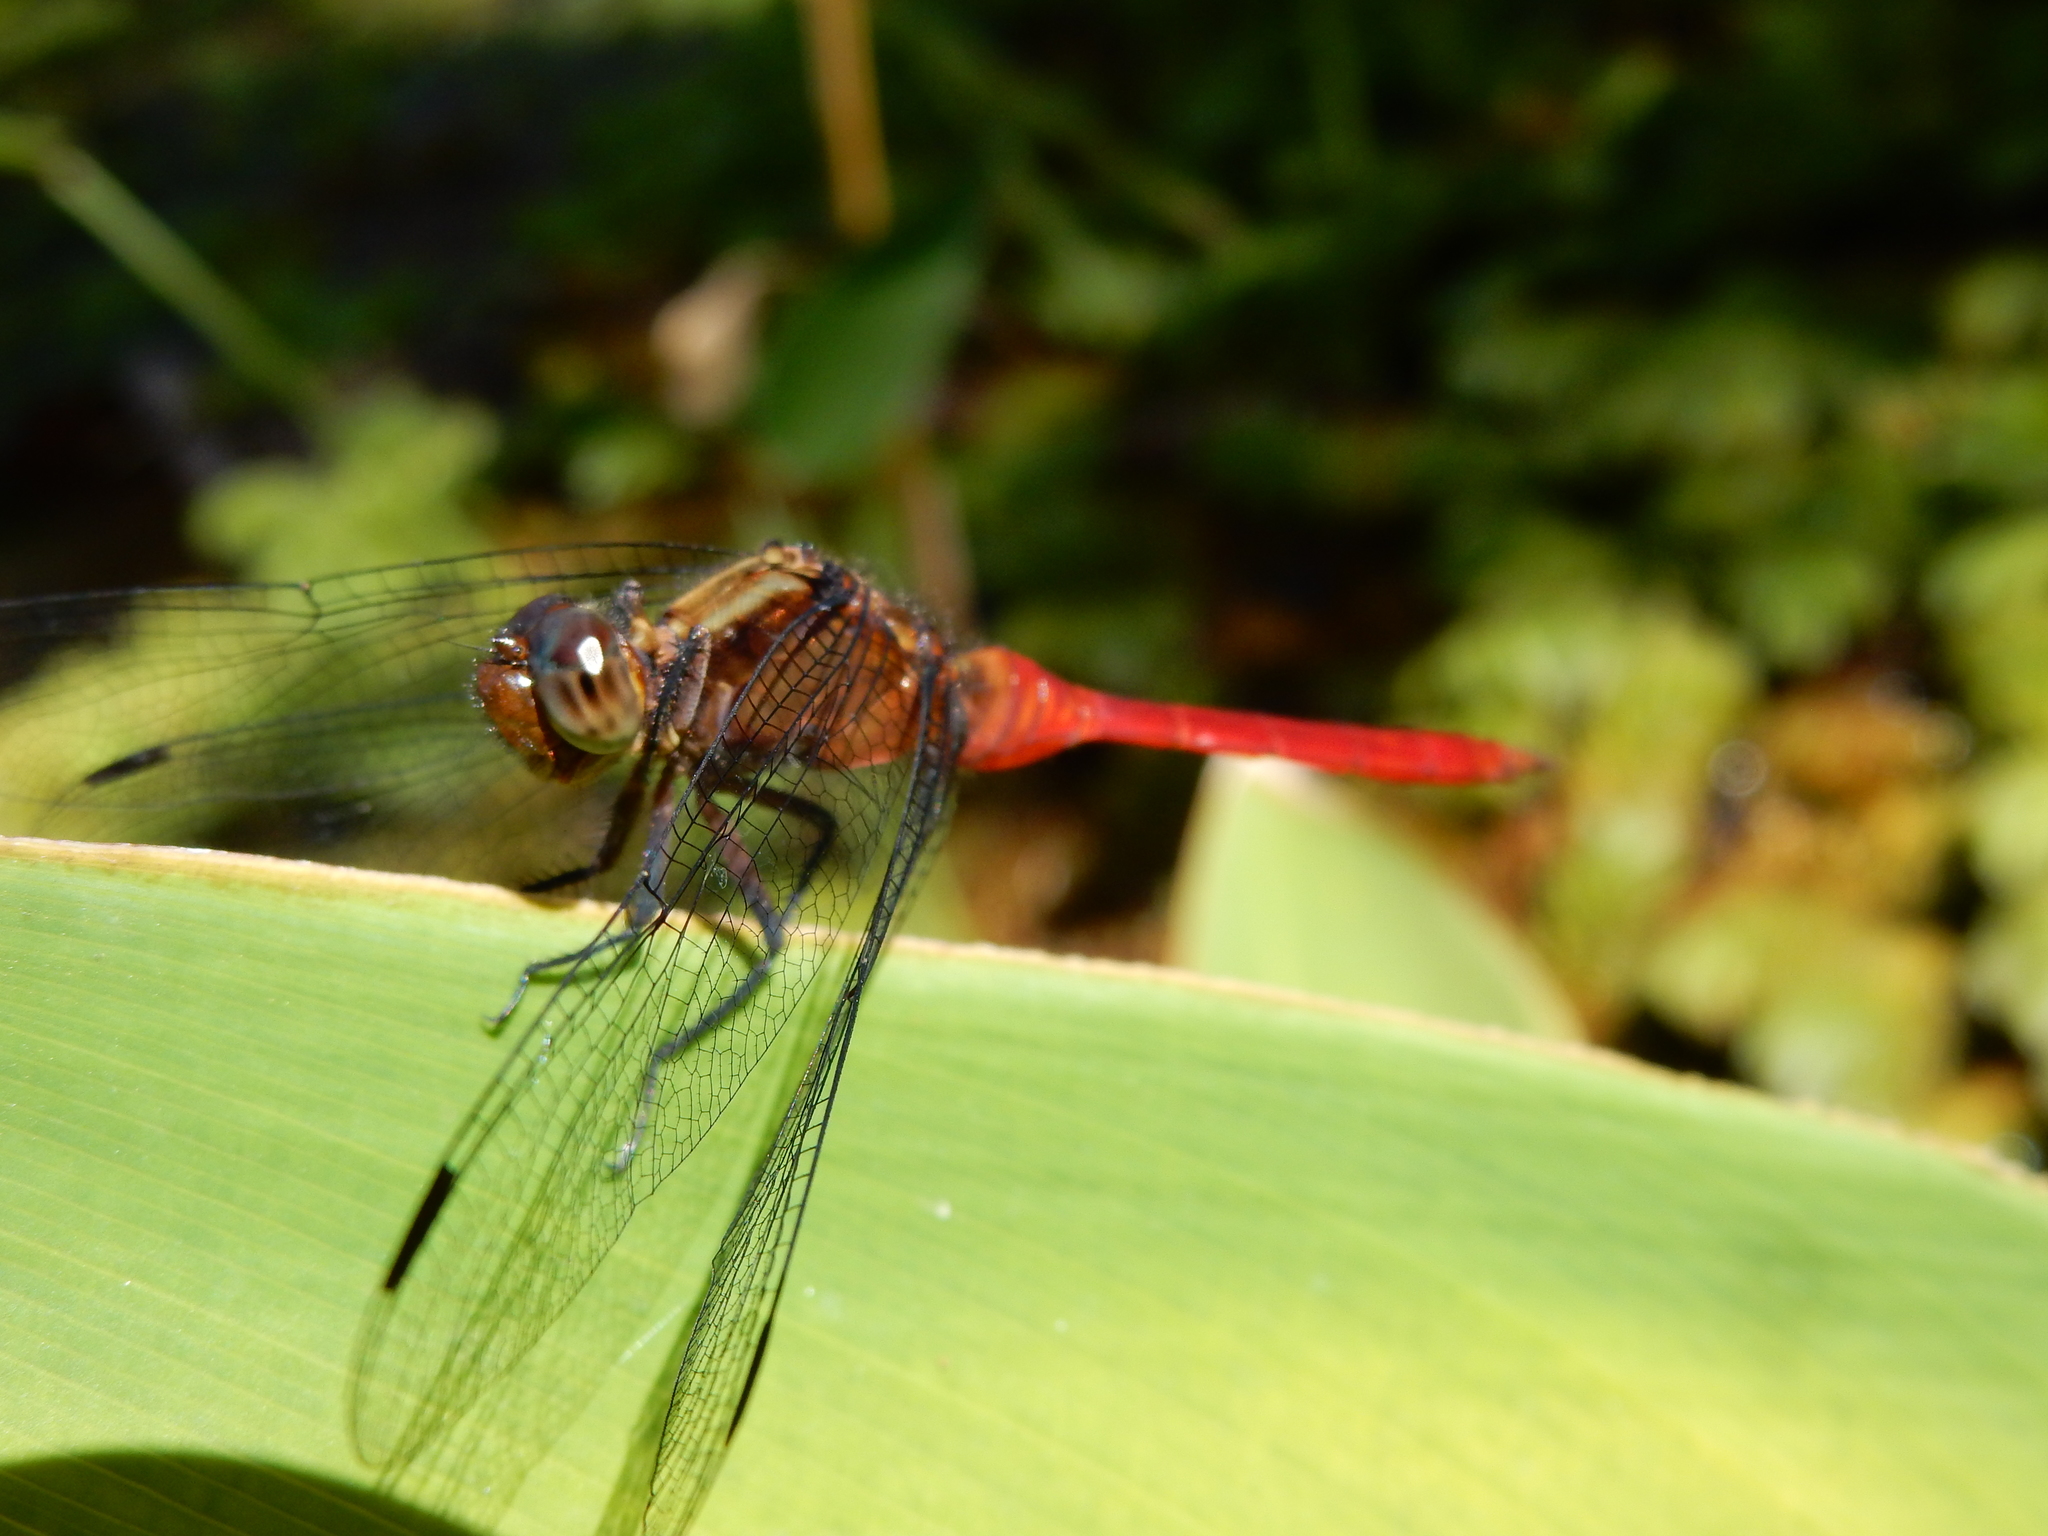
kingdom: Animalia
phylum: Arthropoda
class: Insecta
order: Odonata
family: Libellulidae
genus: Orthetrum
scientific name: Orthetrum villosovittatum
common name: Firery skimmer
